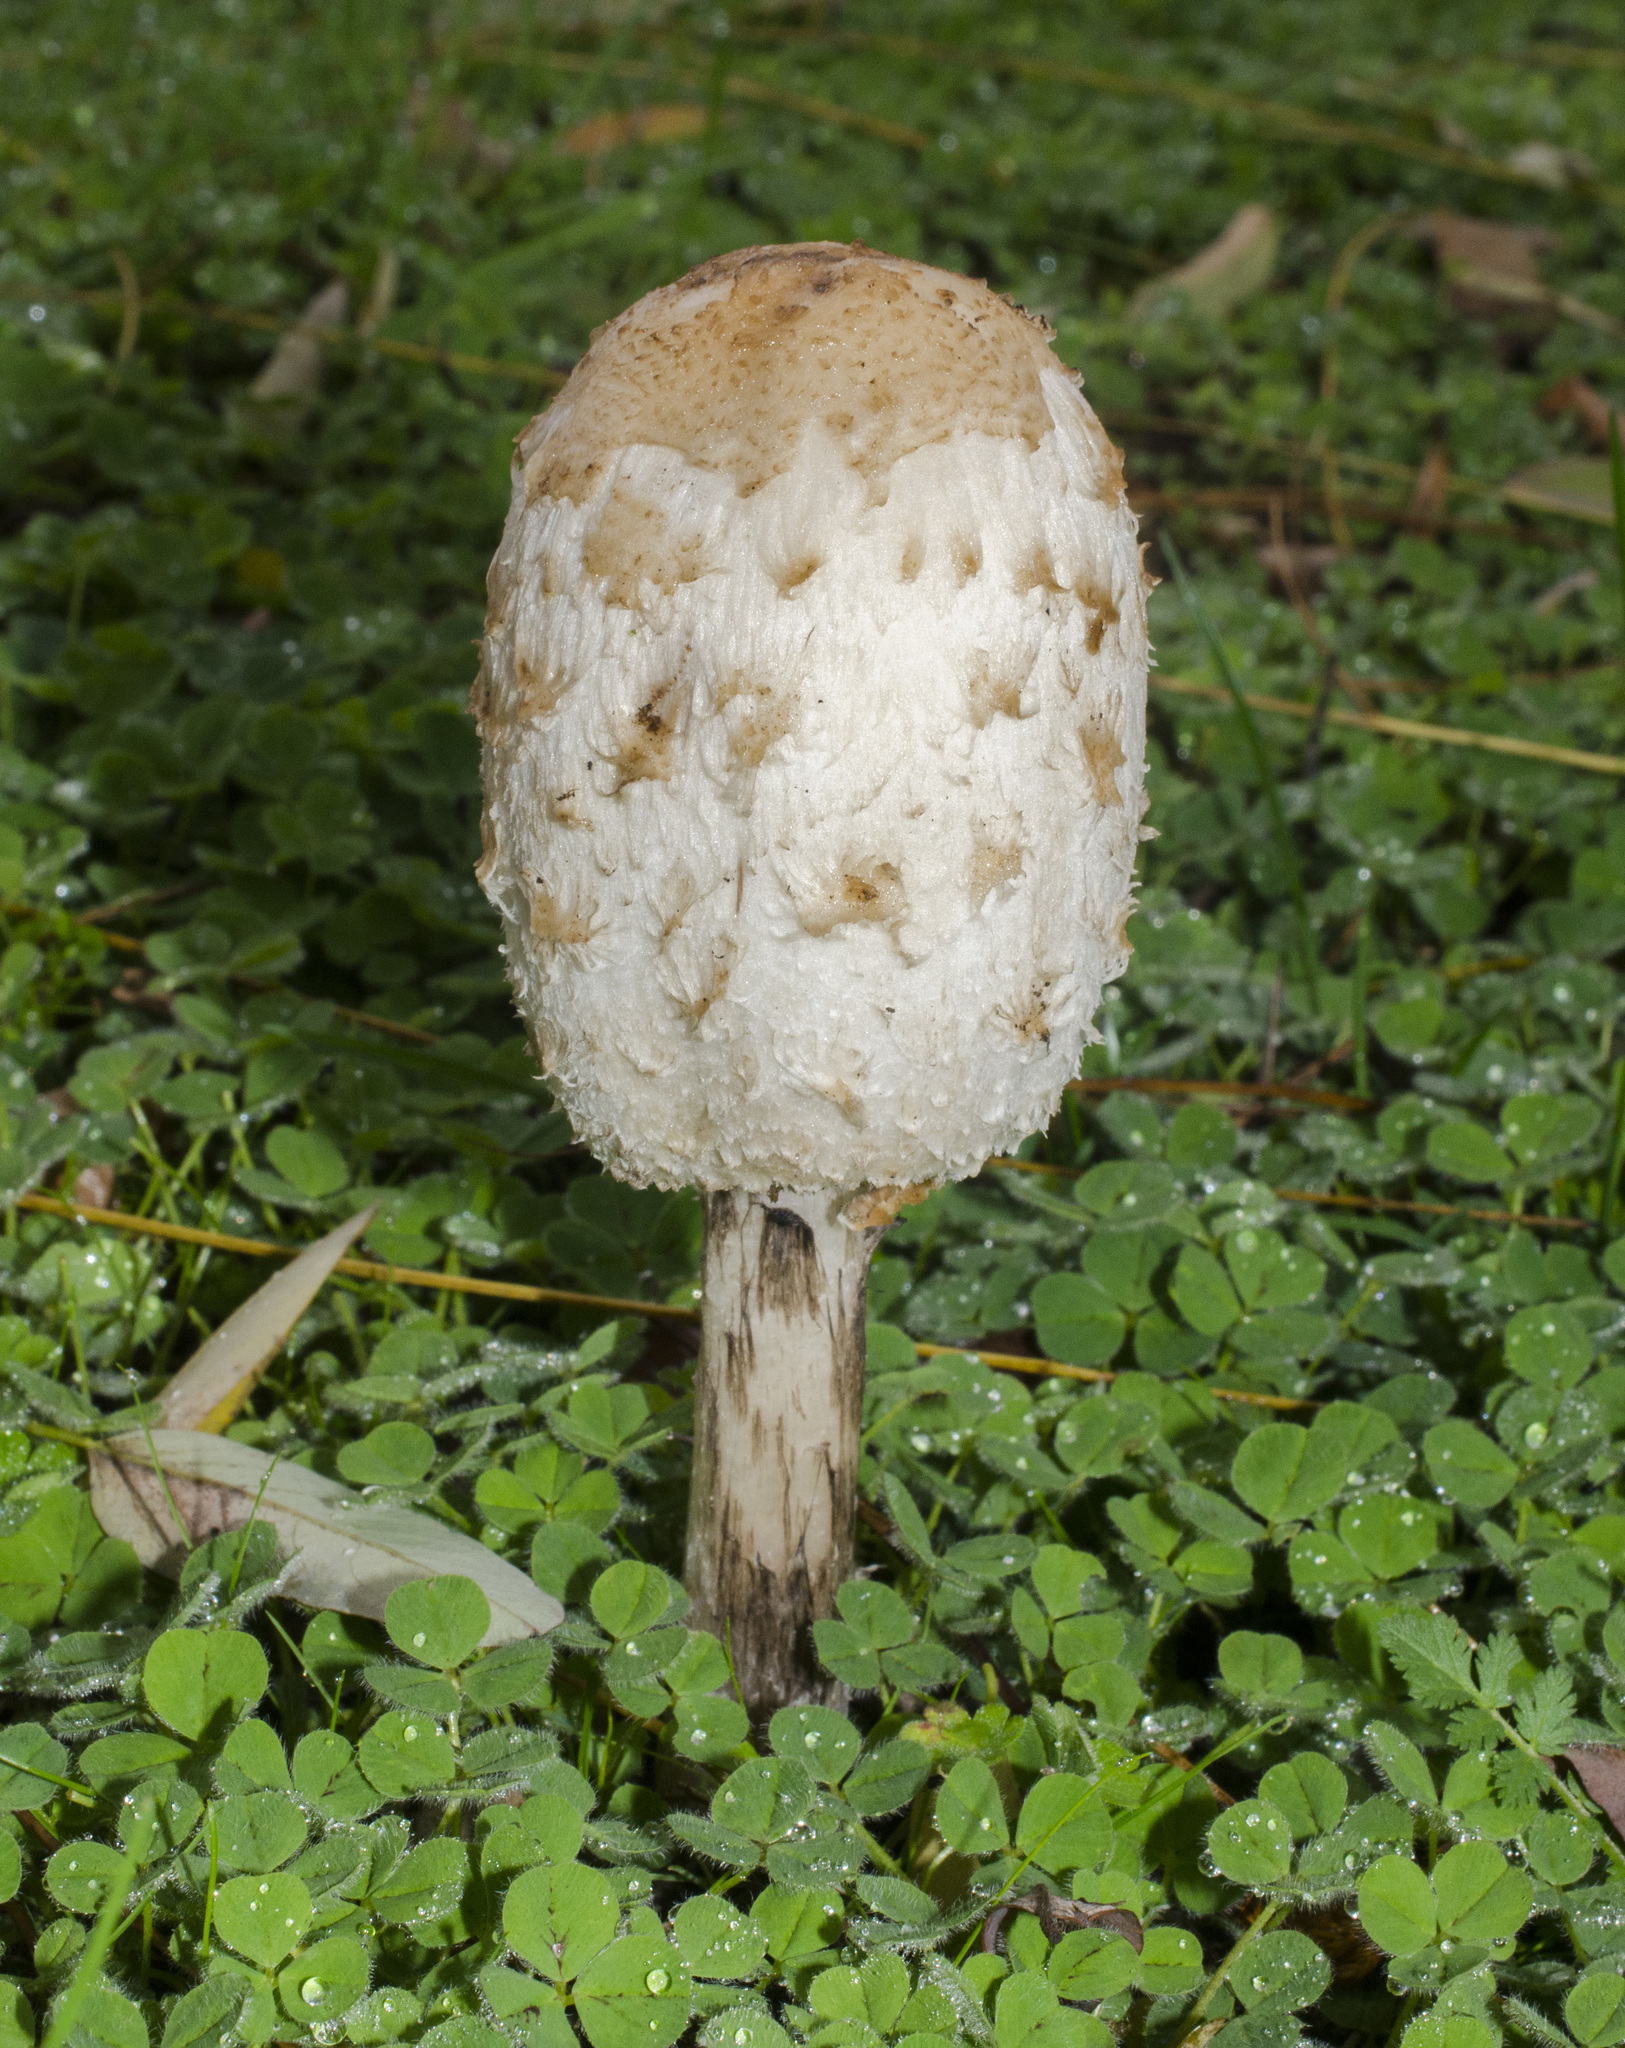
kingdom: Fungi
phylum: Basidiomycota
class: Agaricomycetes
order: Agaricales
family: Agaricaceae
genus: Coprinus
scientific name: Coprinus comatus
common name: Lawyer's wig
